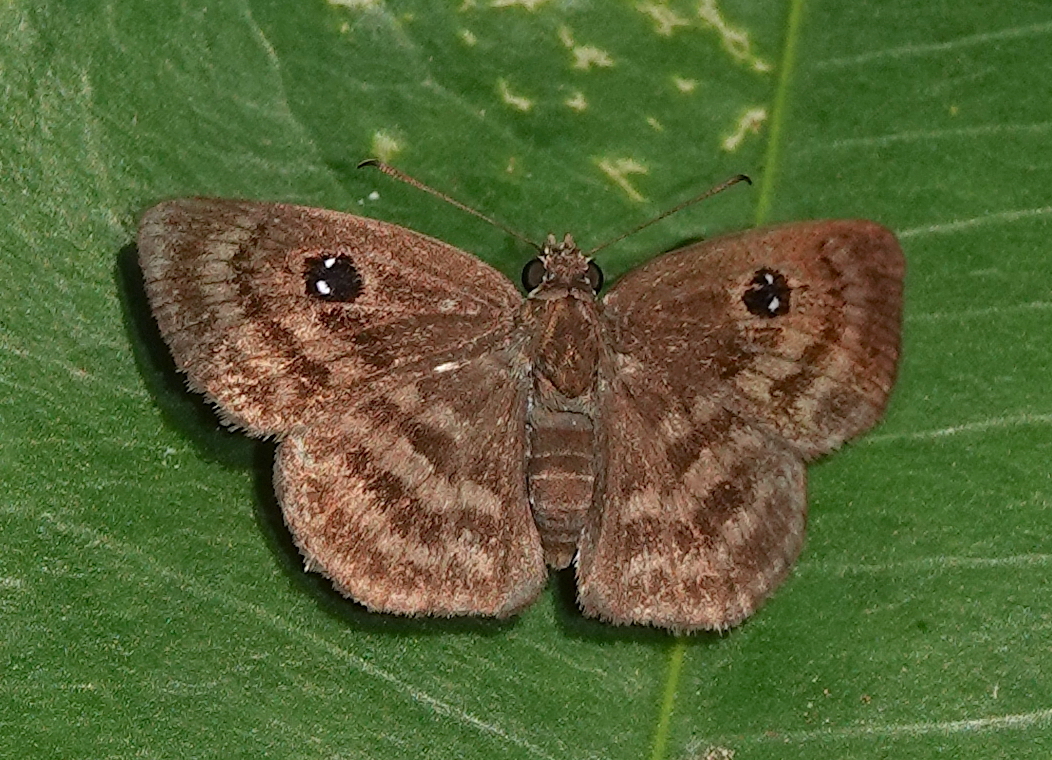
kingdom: Animalia
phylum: Arthropoda
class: Insecta
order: Lepidoptera
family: Hesperiidae
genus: Cyclosemia
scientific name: Cyclosemia anastomosis
